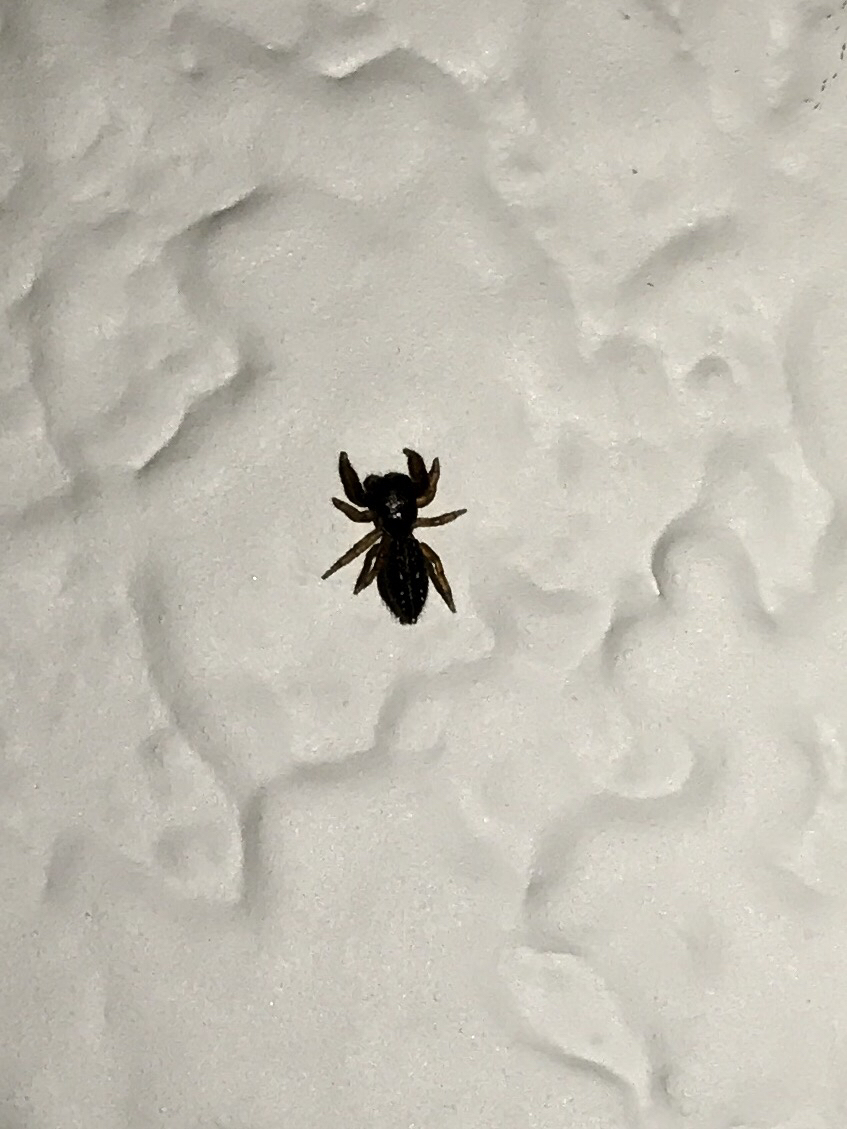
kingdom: Animalia
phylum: Arthropoda
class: Arachnida
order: Araneae
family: Salticidae
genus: Metacyrba
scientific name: Metacyrba taeniola
